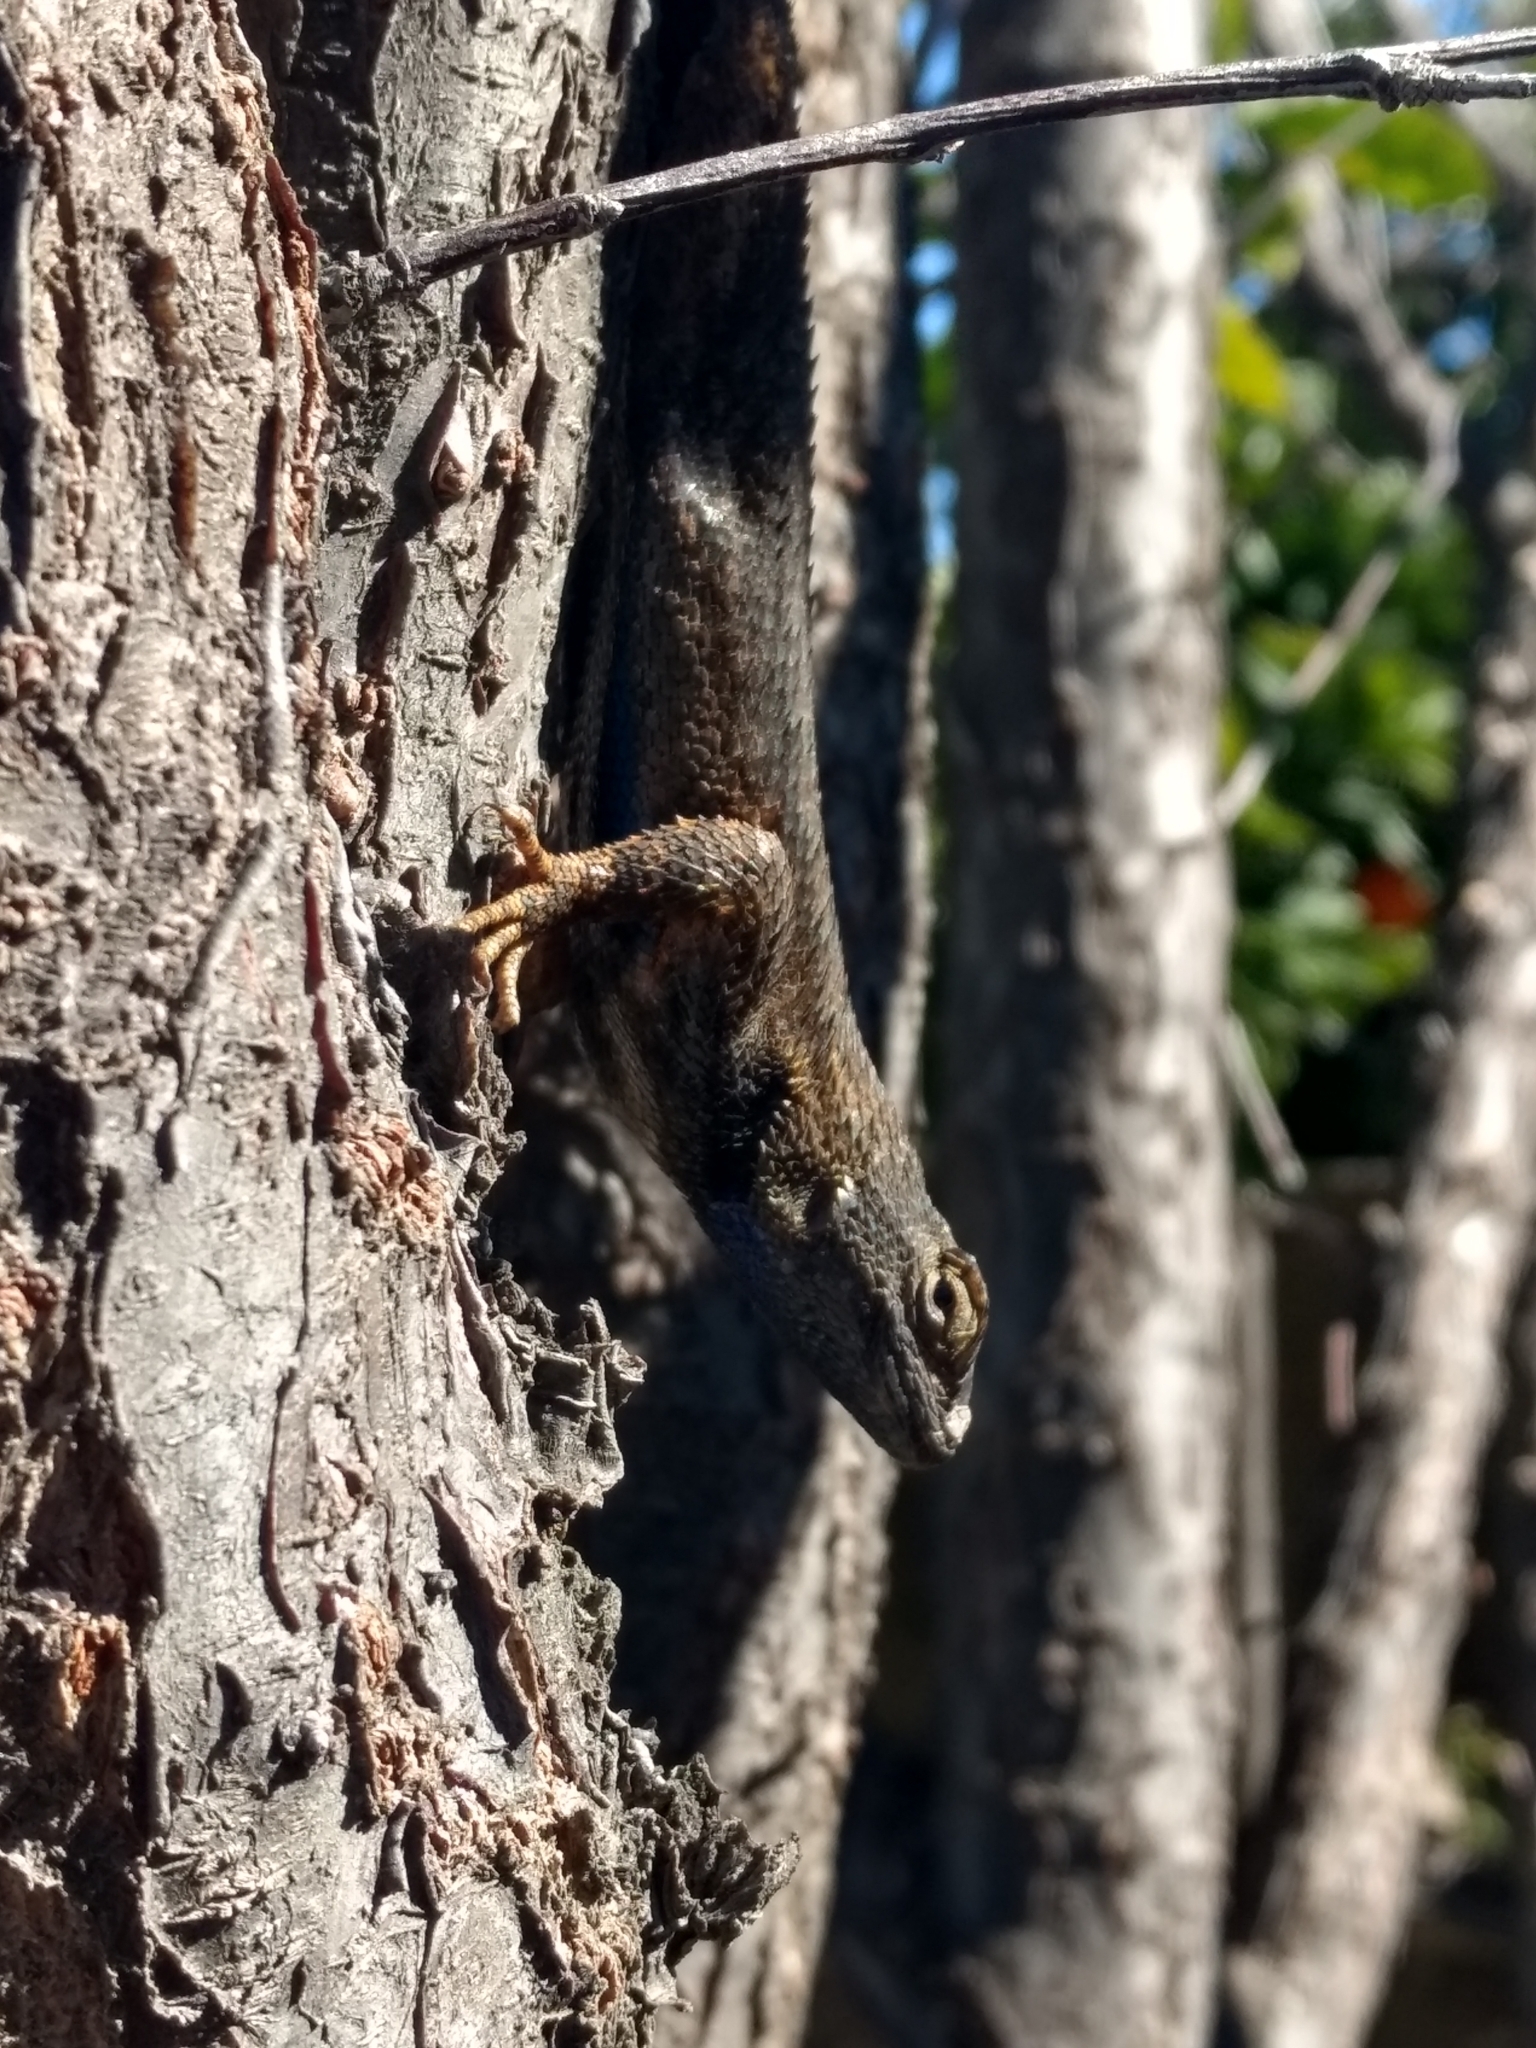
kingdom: Animalia
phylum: Chordata
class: Squamata
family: Phrynosomatidae
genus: Sceloporus
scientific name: Sceloporus occidentalis
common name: Western fence lizard
